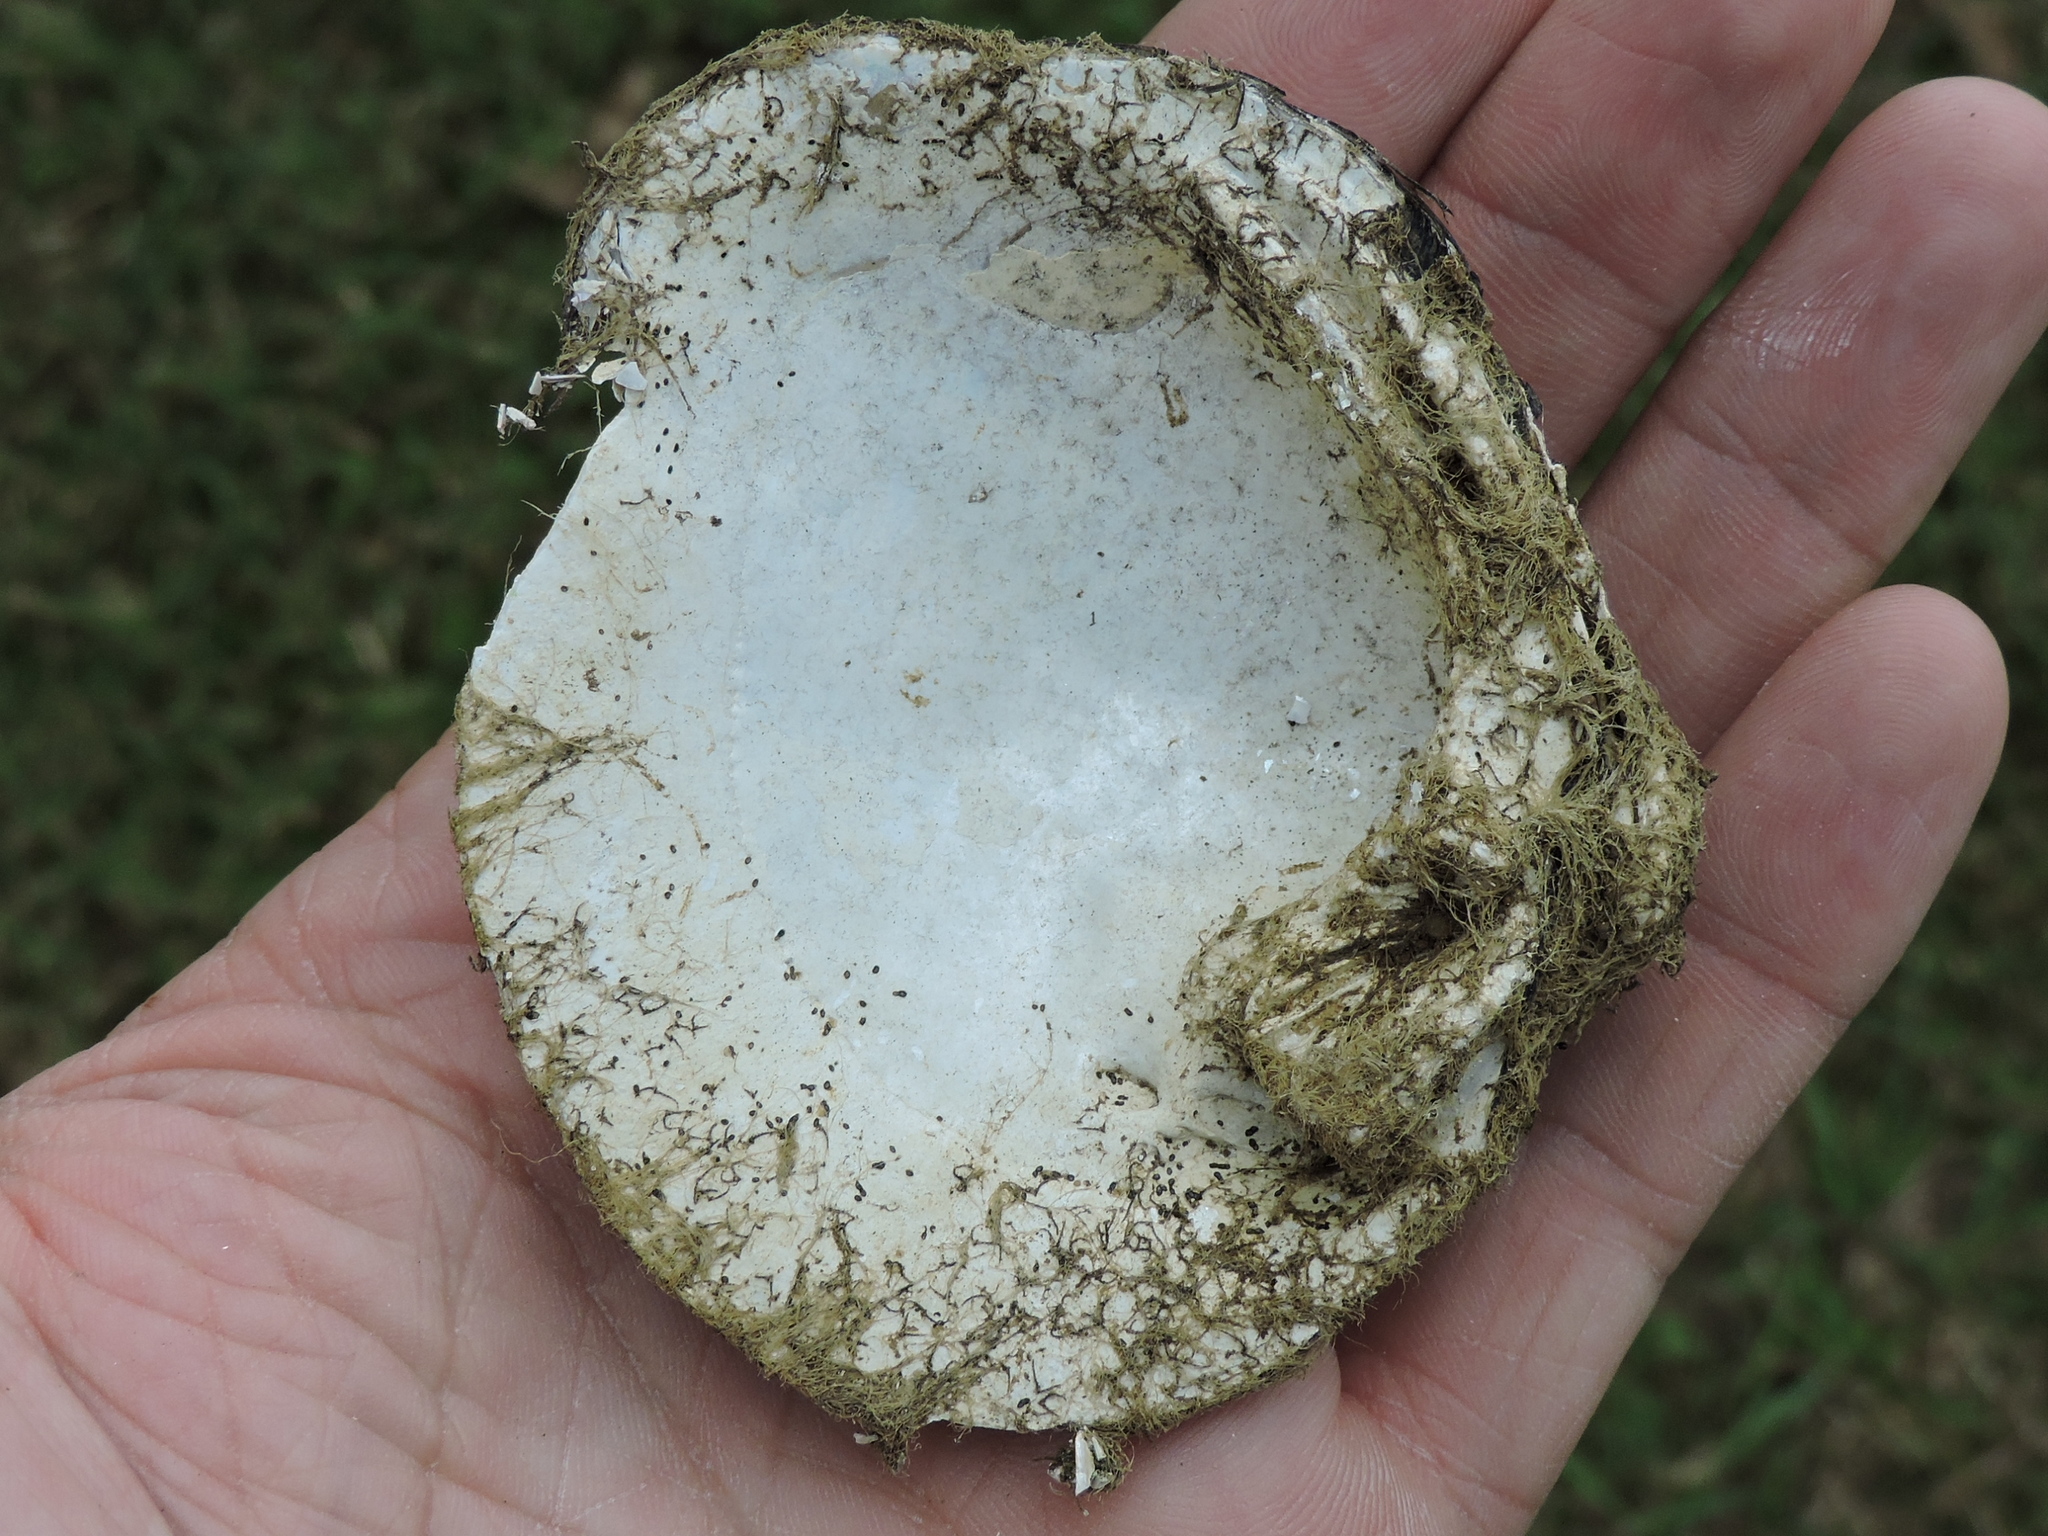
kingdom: Animalia
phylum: Mollusca
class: Bivalvia
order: Unionida
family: Unionidae
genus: Quadrula
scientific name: Quadrula quadrula
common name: Mapleleaf
